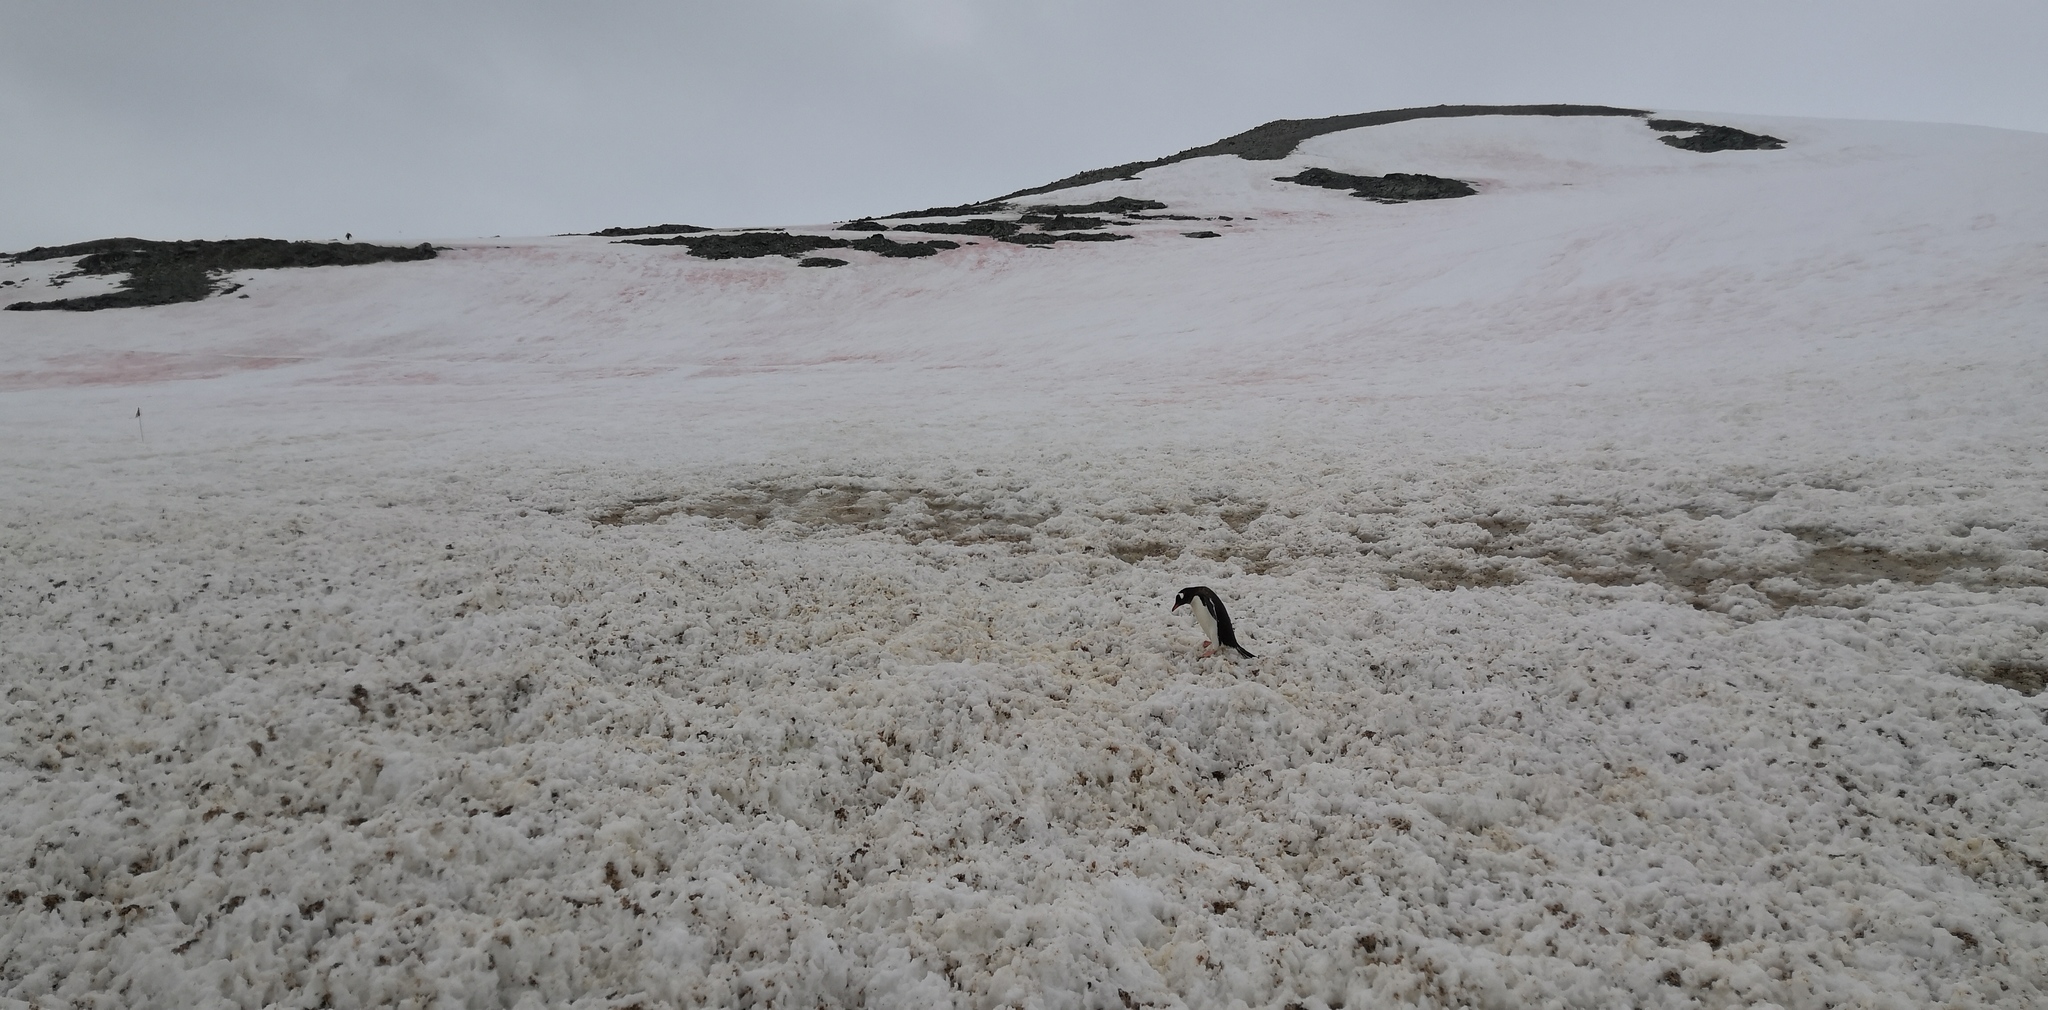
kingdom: Animalia
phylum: Chordata
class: Aves
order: Sphenisciformes
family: Spheniscidae
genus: Pygoscelis
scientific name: Pygoscelis papua
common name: Gentoo penguin
